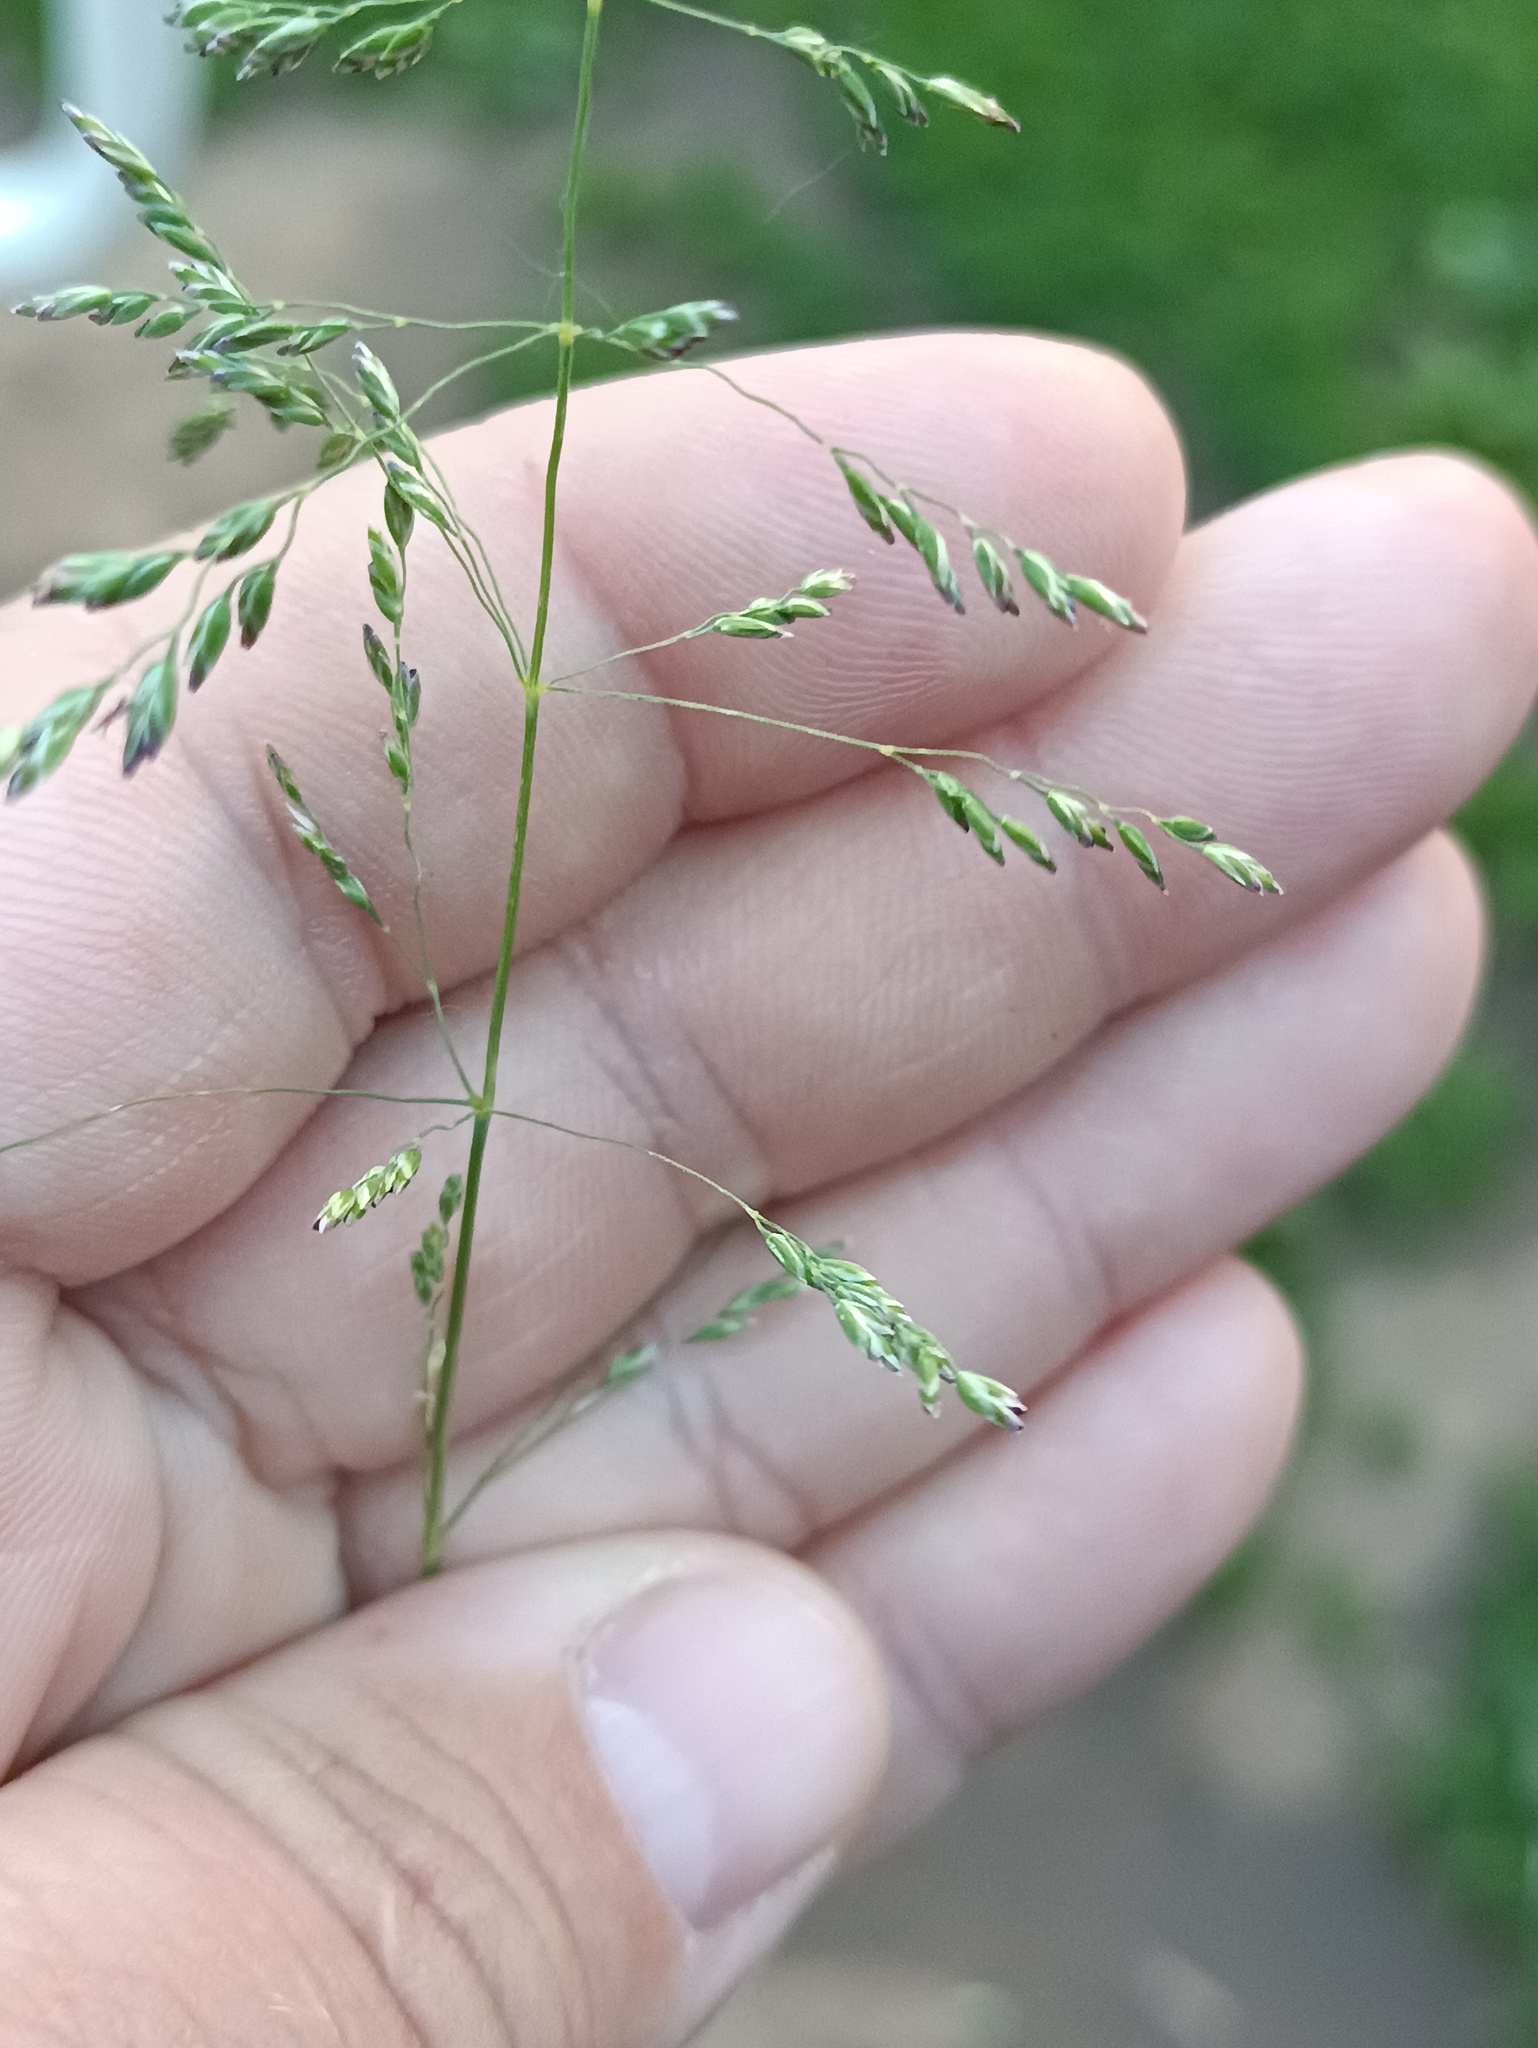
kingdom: Plantae
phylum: Tracheophyta
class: Liliopsida
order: Poales
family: Poaceae
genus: Poa
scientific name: Poa trivialis
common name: Rough bluegrass
